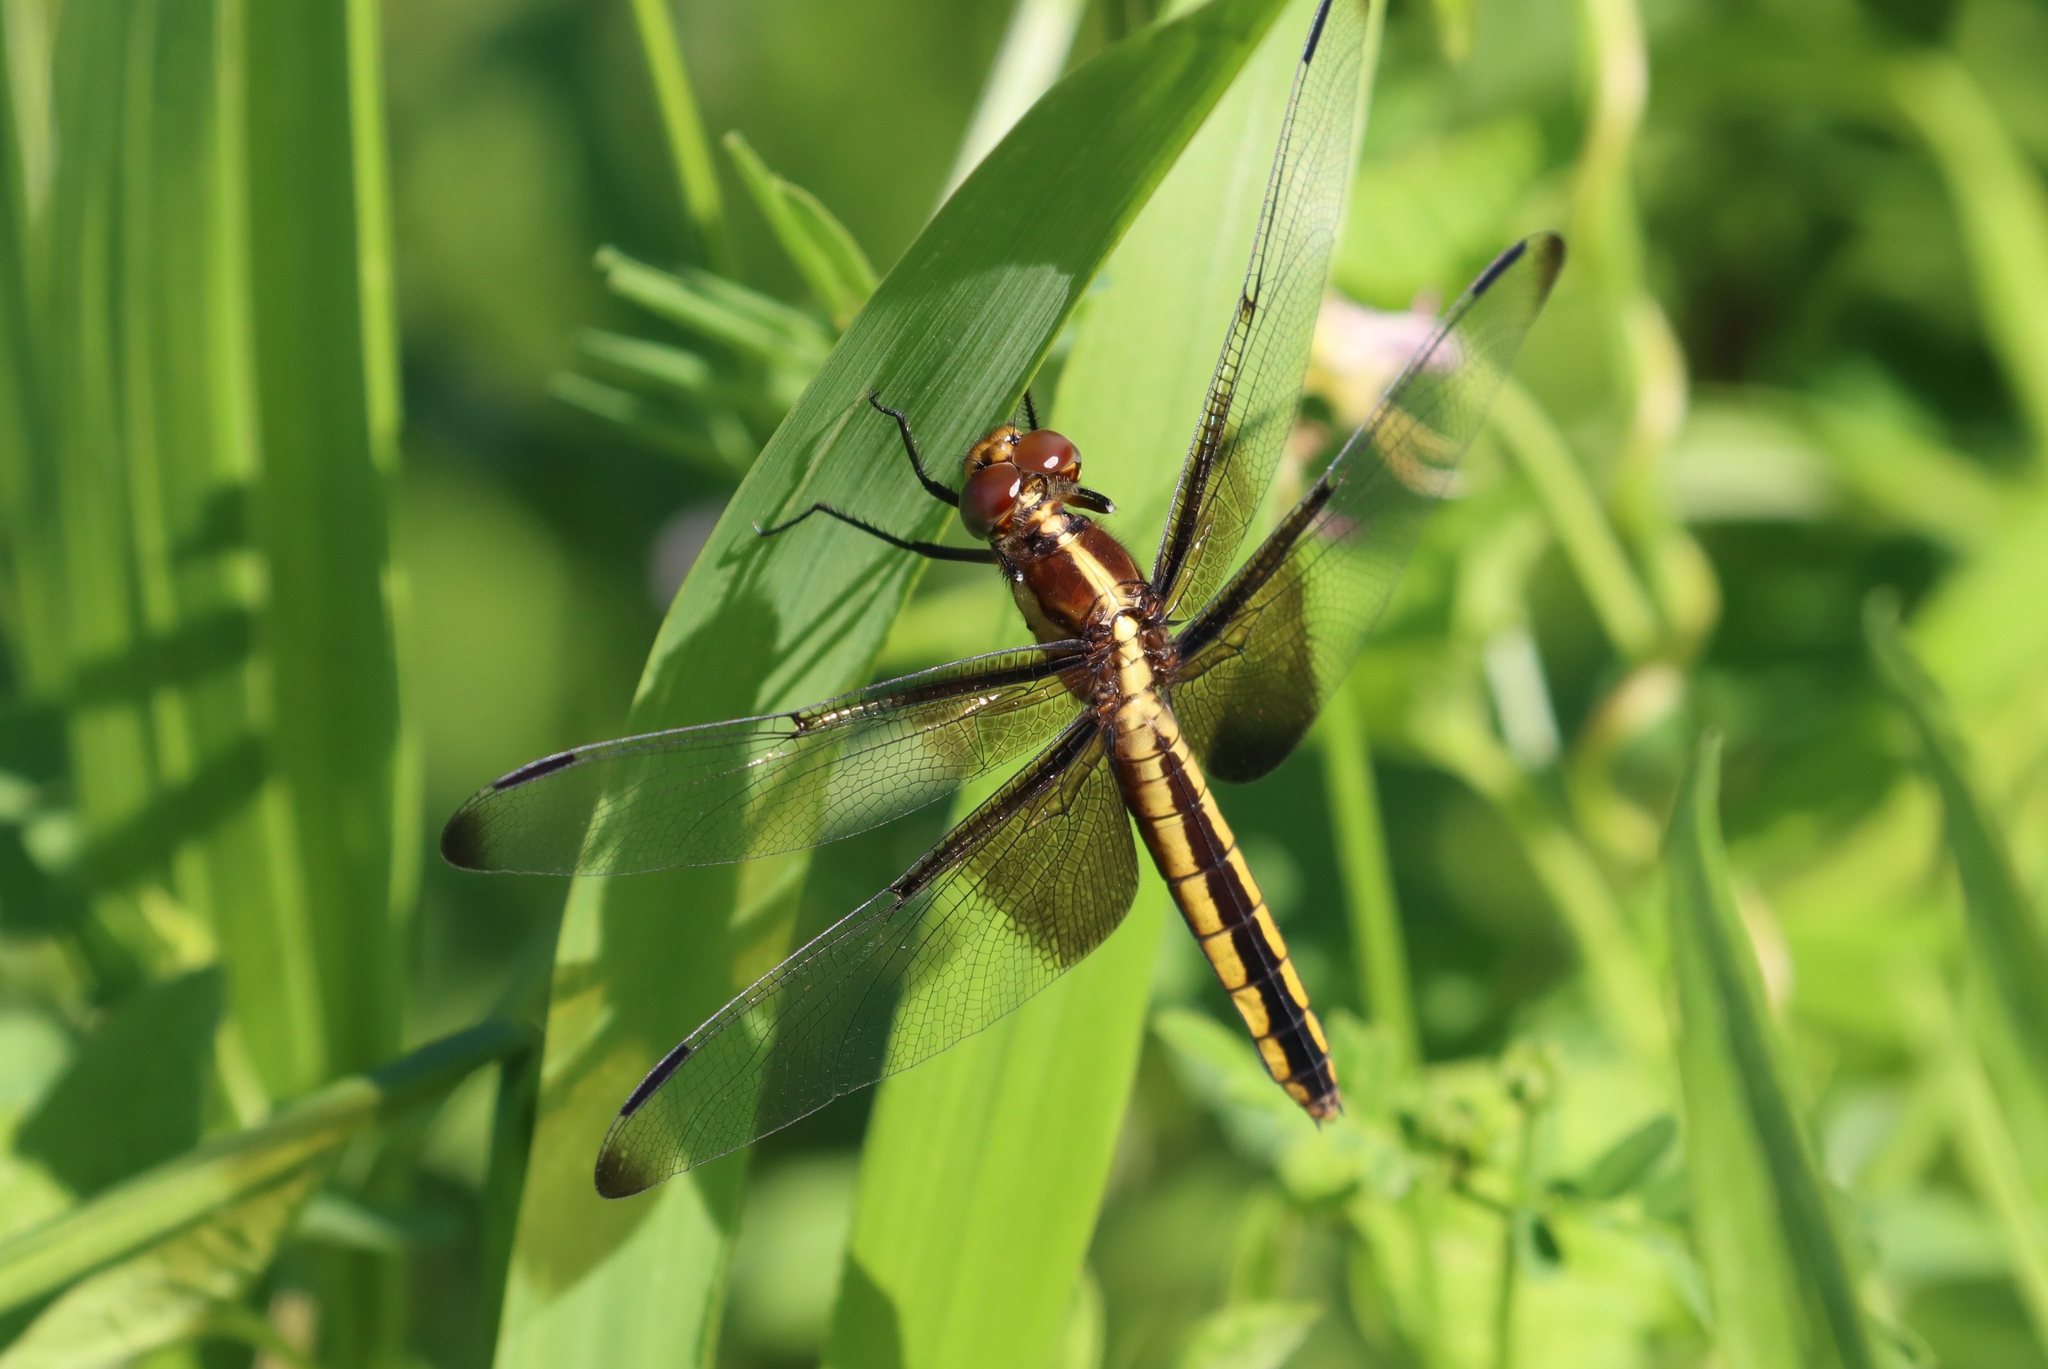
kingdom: Animalia
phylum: Arthropoda
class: Insecta
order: Odonata
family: Libellulidae
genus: Libellula
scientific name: Libellula luctuosa
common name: Widow skimmer
